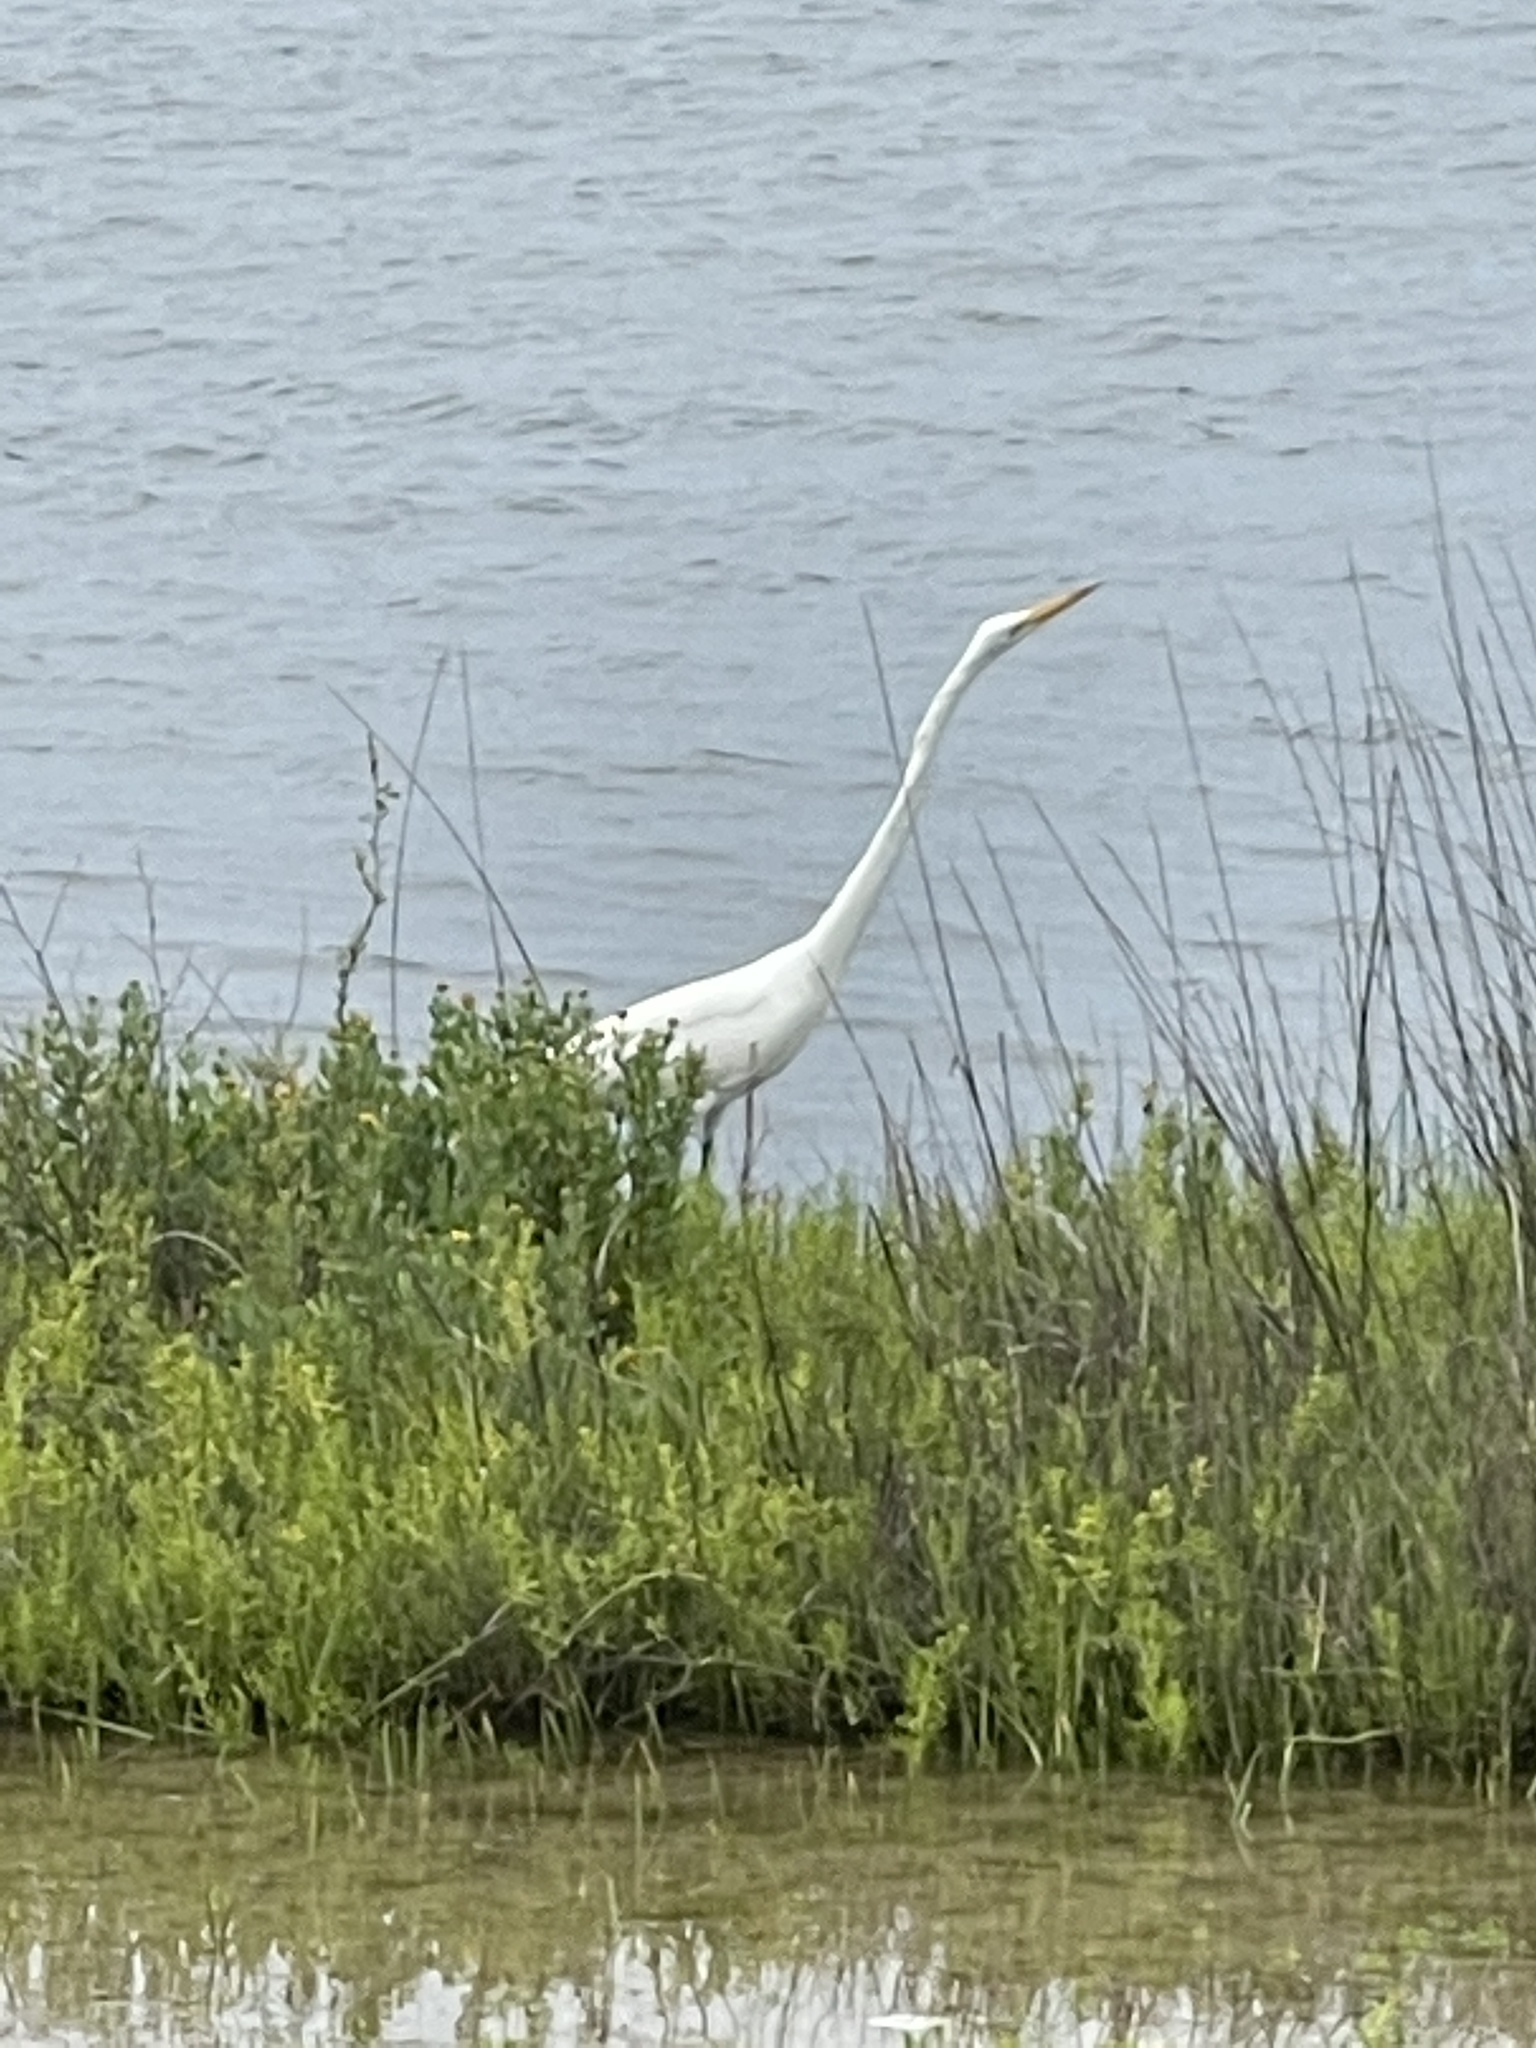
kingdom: Animalia
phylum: Chordata
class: Aves
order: Pelecaniformes
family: Ardeidae
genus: Ardea
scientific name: Ardea alba
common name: Great egret
